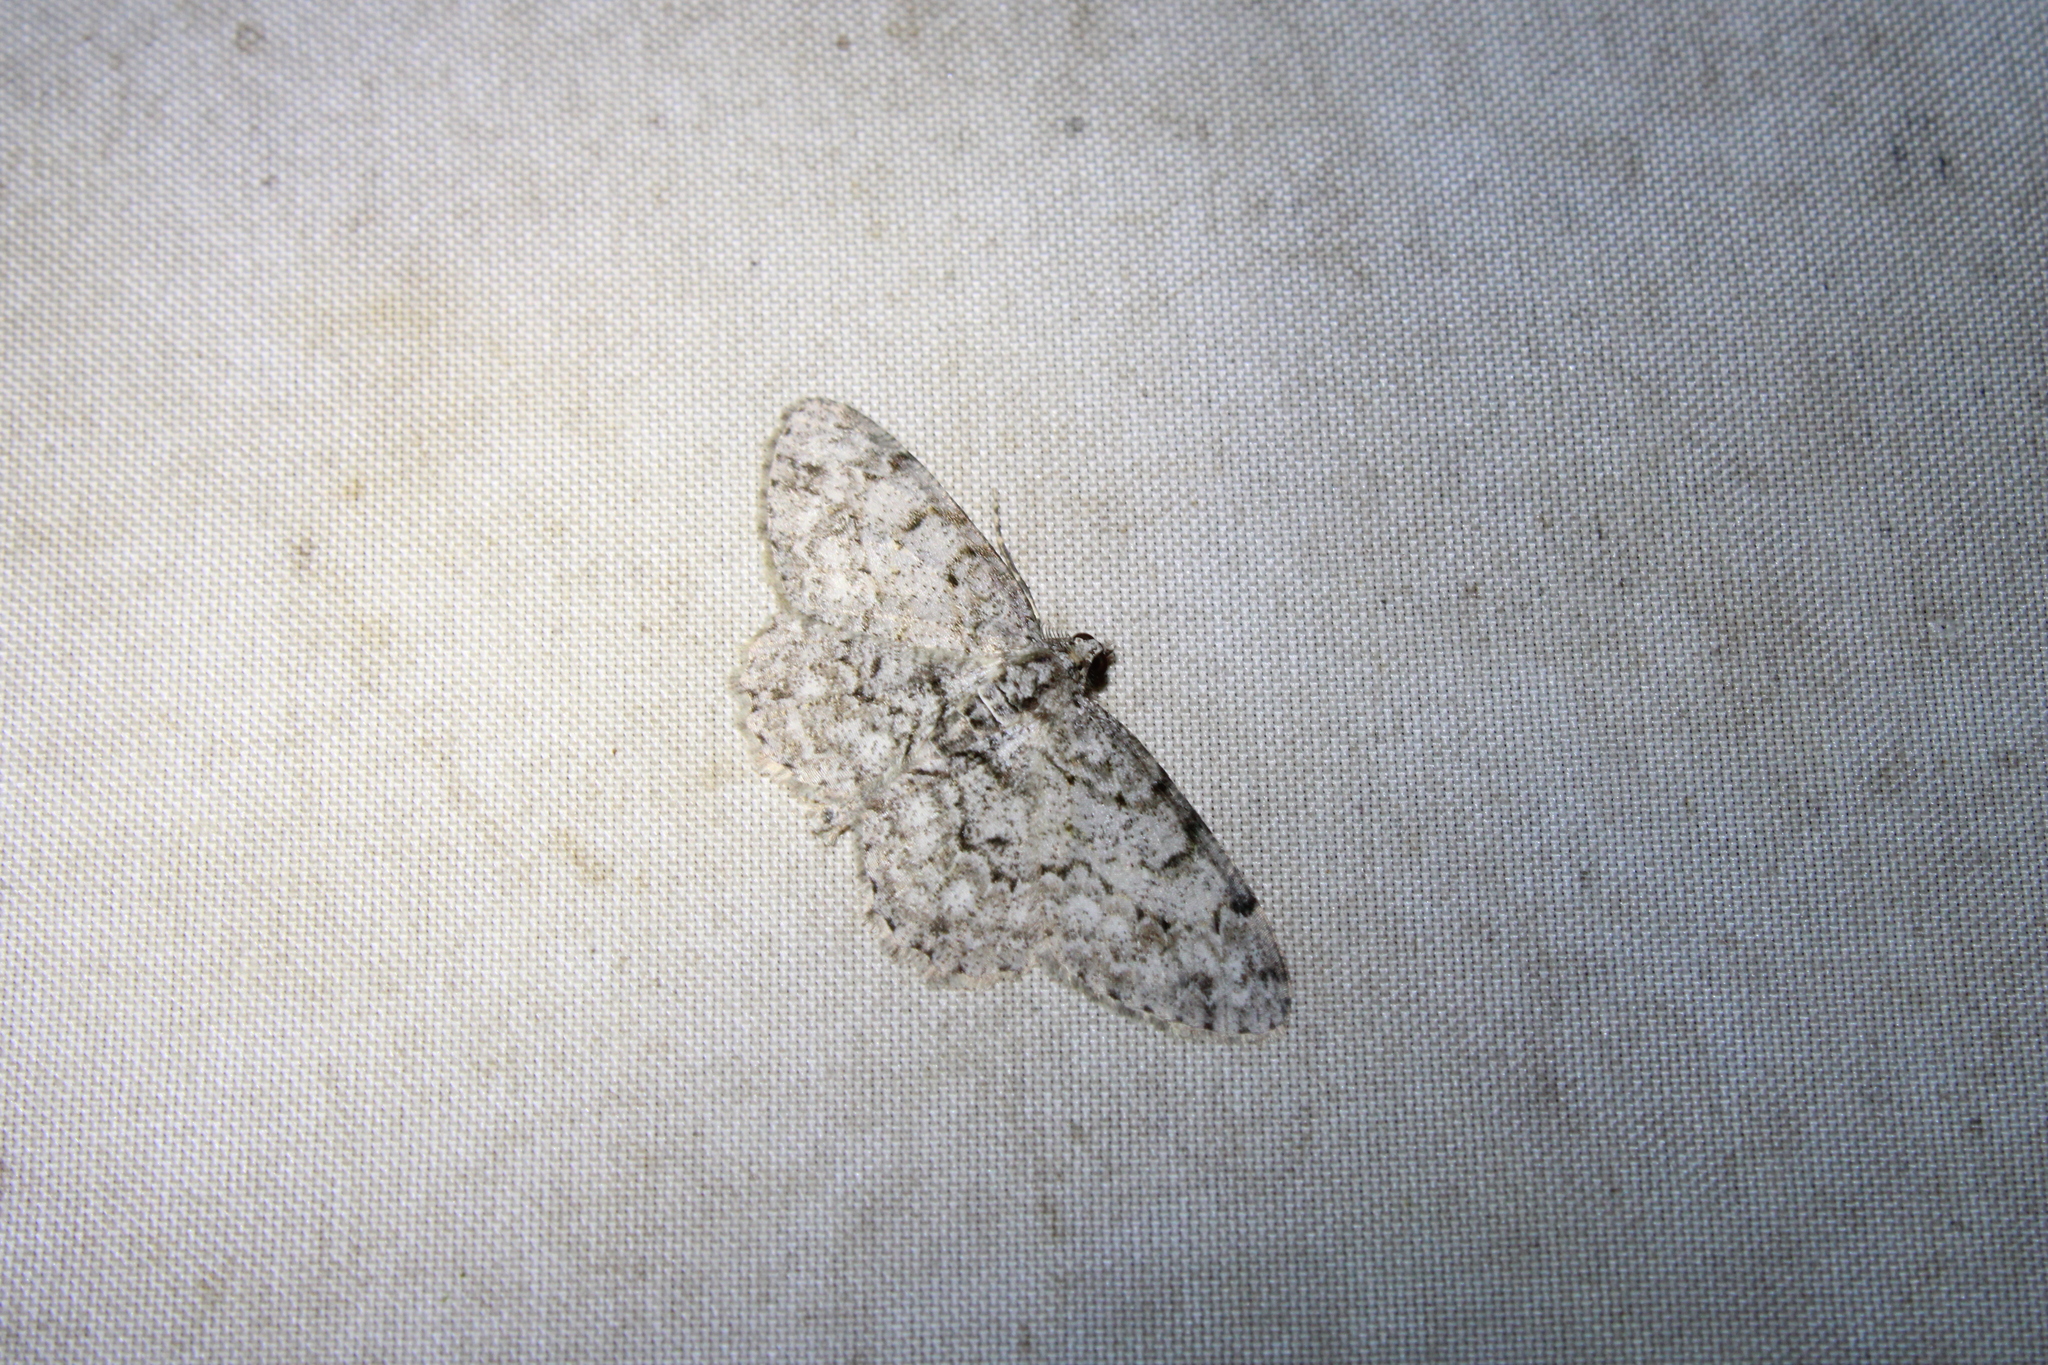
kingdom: Animalia
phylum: Arthropoda
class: Insecta
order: Lepidoptera
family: Geometridae
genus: Protoboarmia
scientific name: Protoboarmia porcelaria
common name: Porcelain gray
